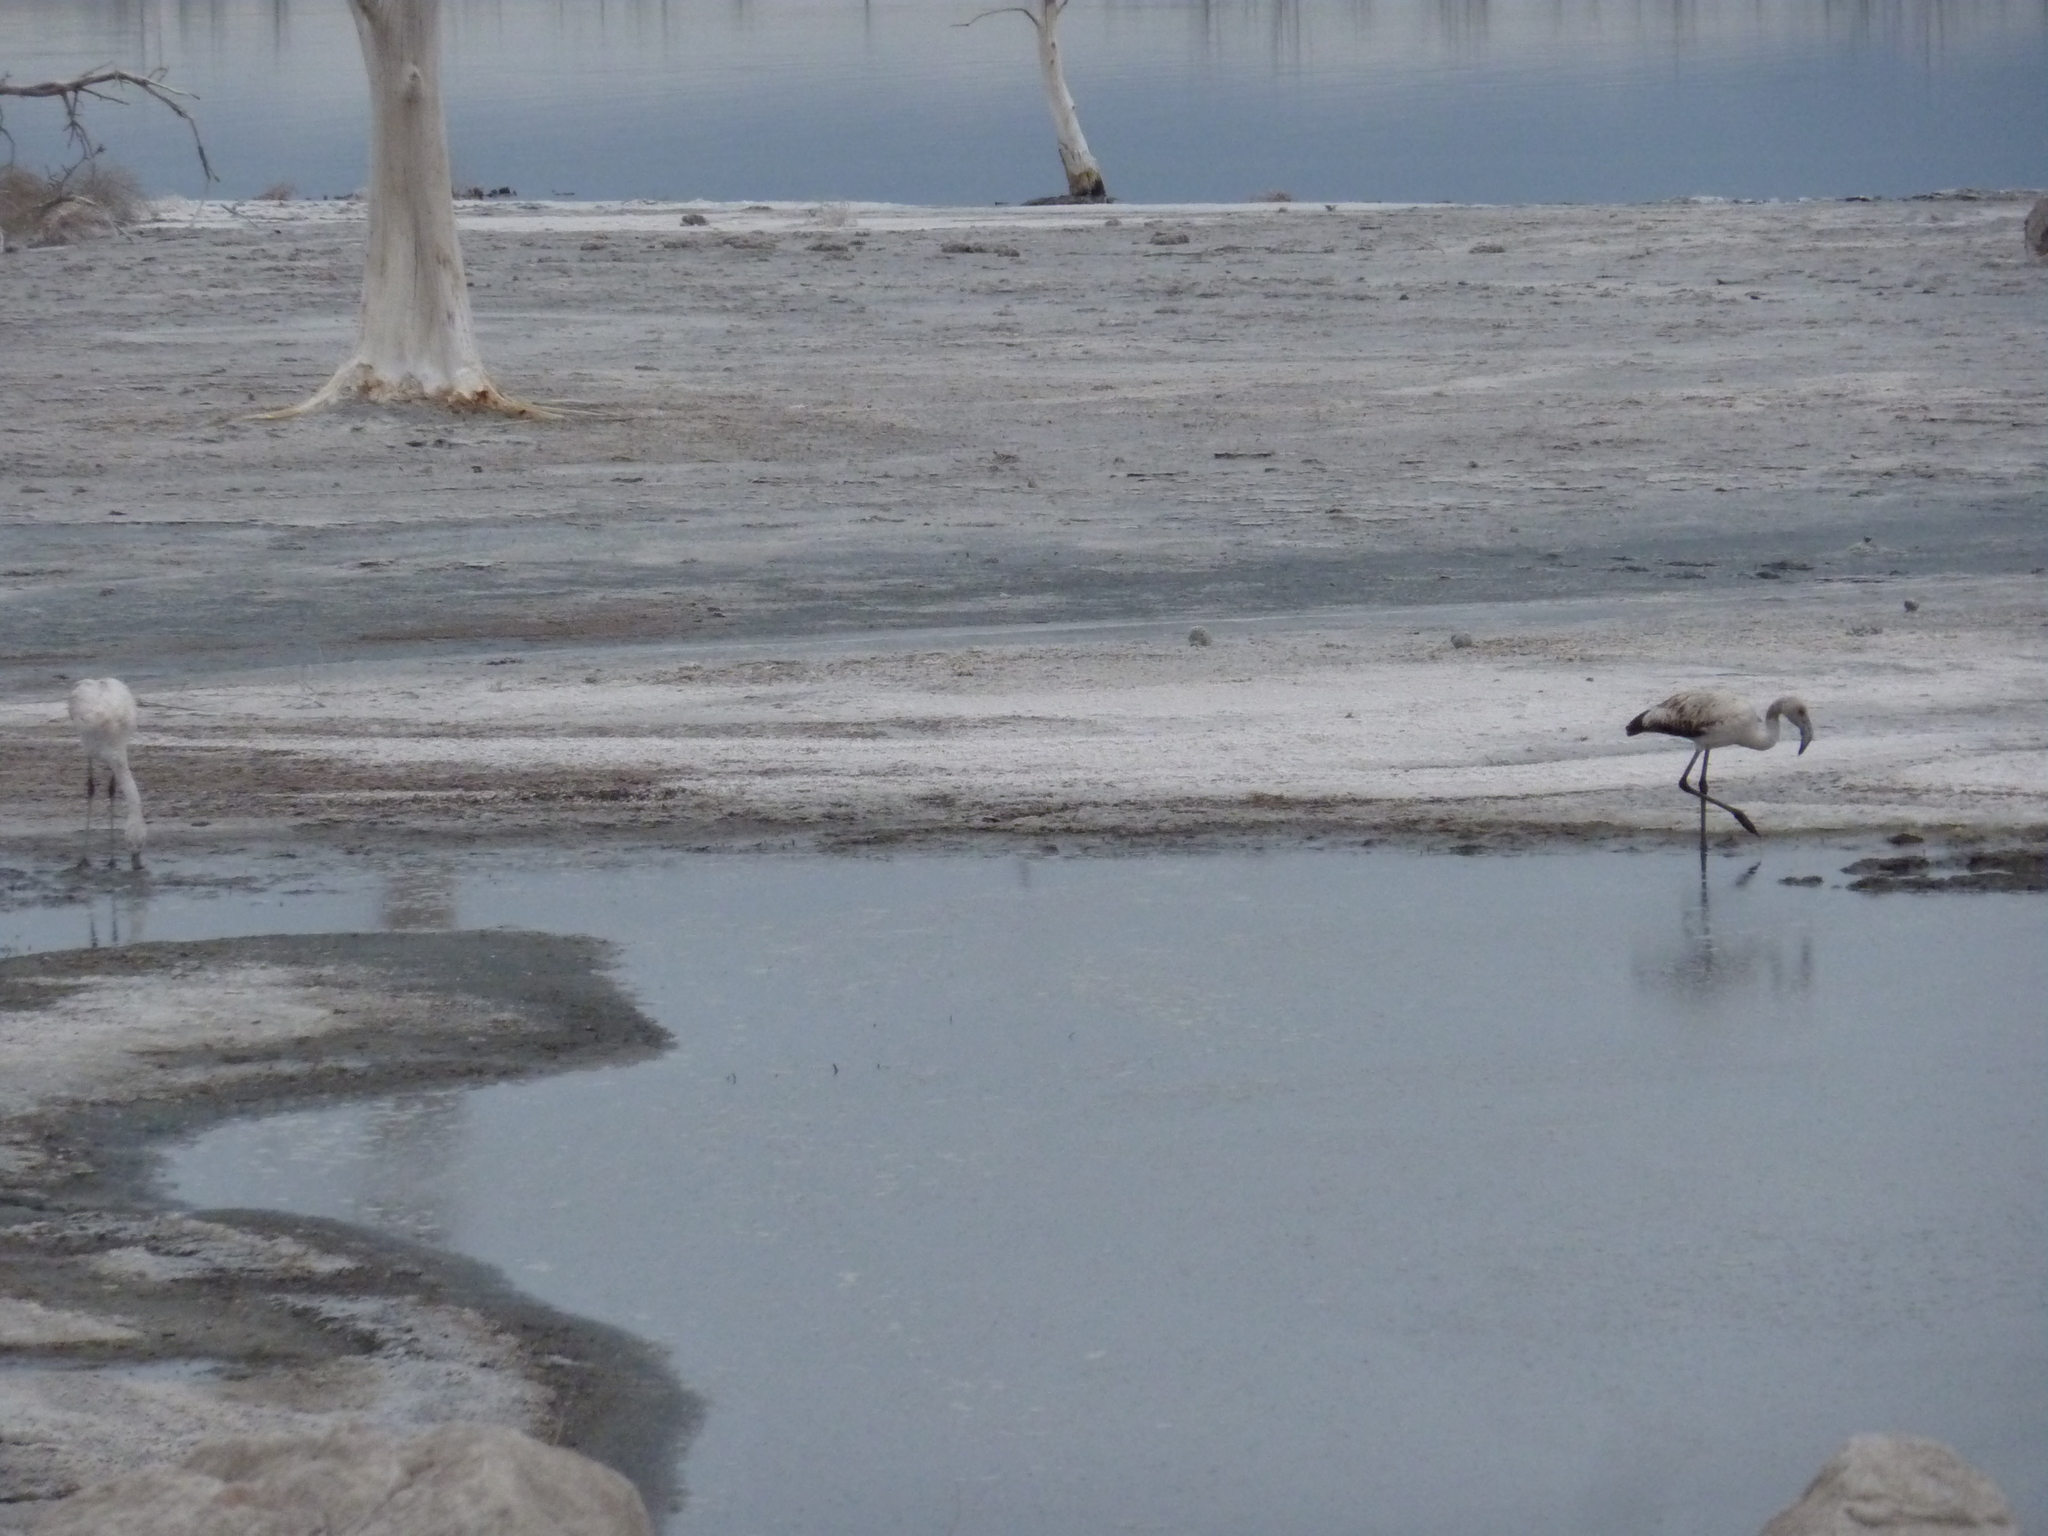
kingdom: Animalia
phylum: Chordata
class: Aves
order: Phoenicopteriformes
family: Phoenicopteridae
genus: Phoenicopterus
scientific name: Phoenicopterus chilensis
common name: Chilean flamingo
